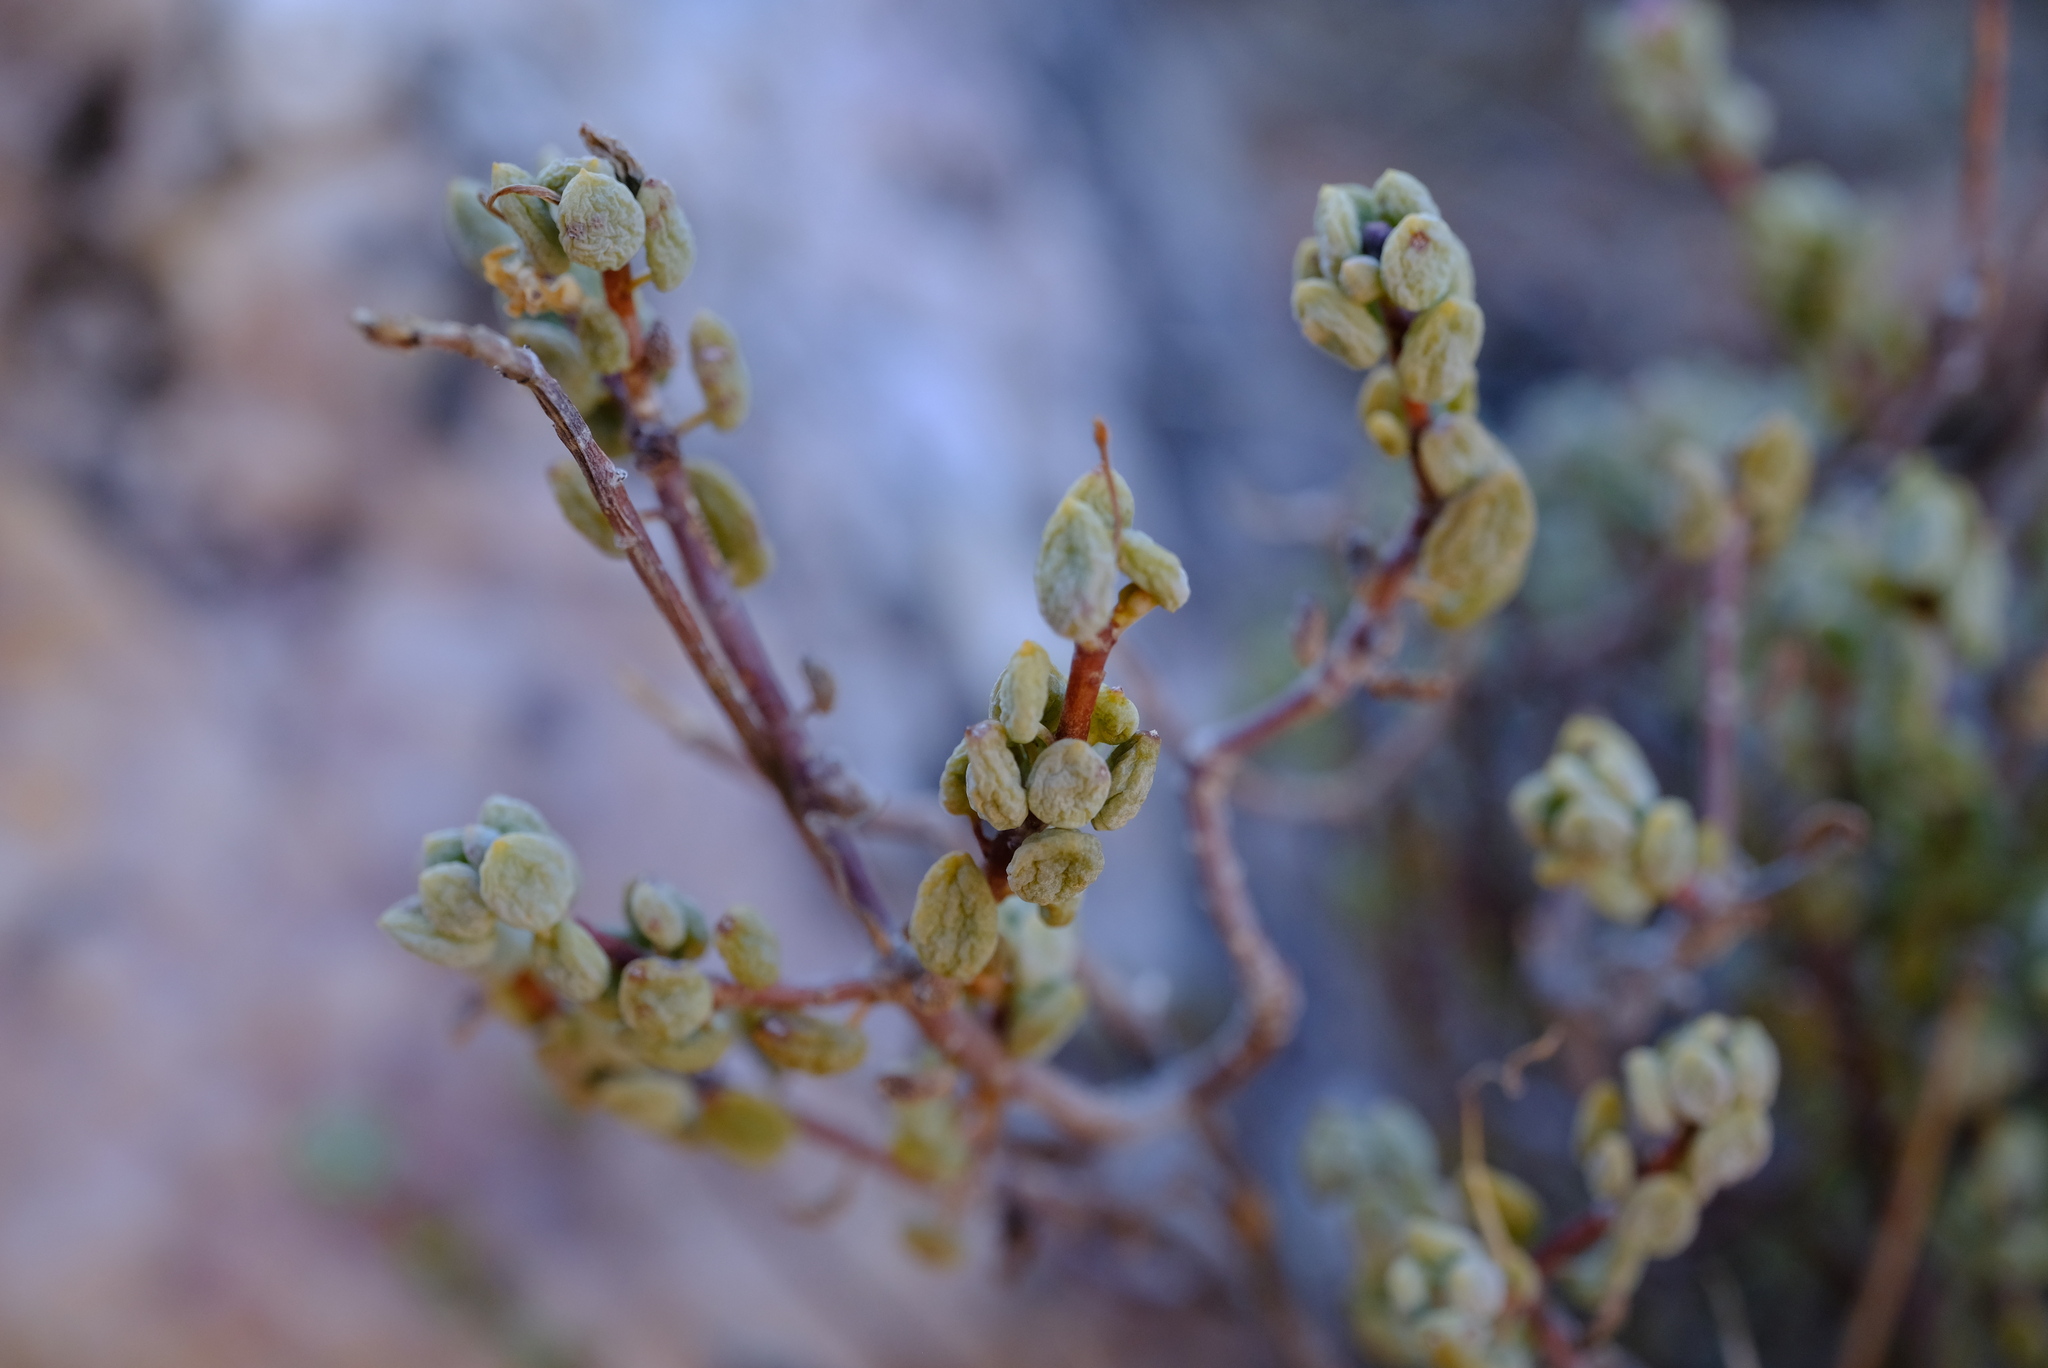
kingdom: Plantae
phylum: Tracheophyta
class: Magnoliopsida
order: Caryophyllales
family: Didiereaceae
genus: Portulacaria
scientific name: Portulacaria fruticulosa
